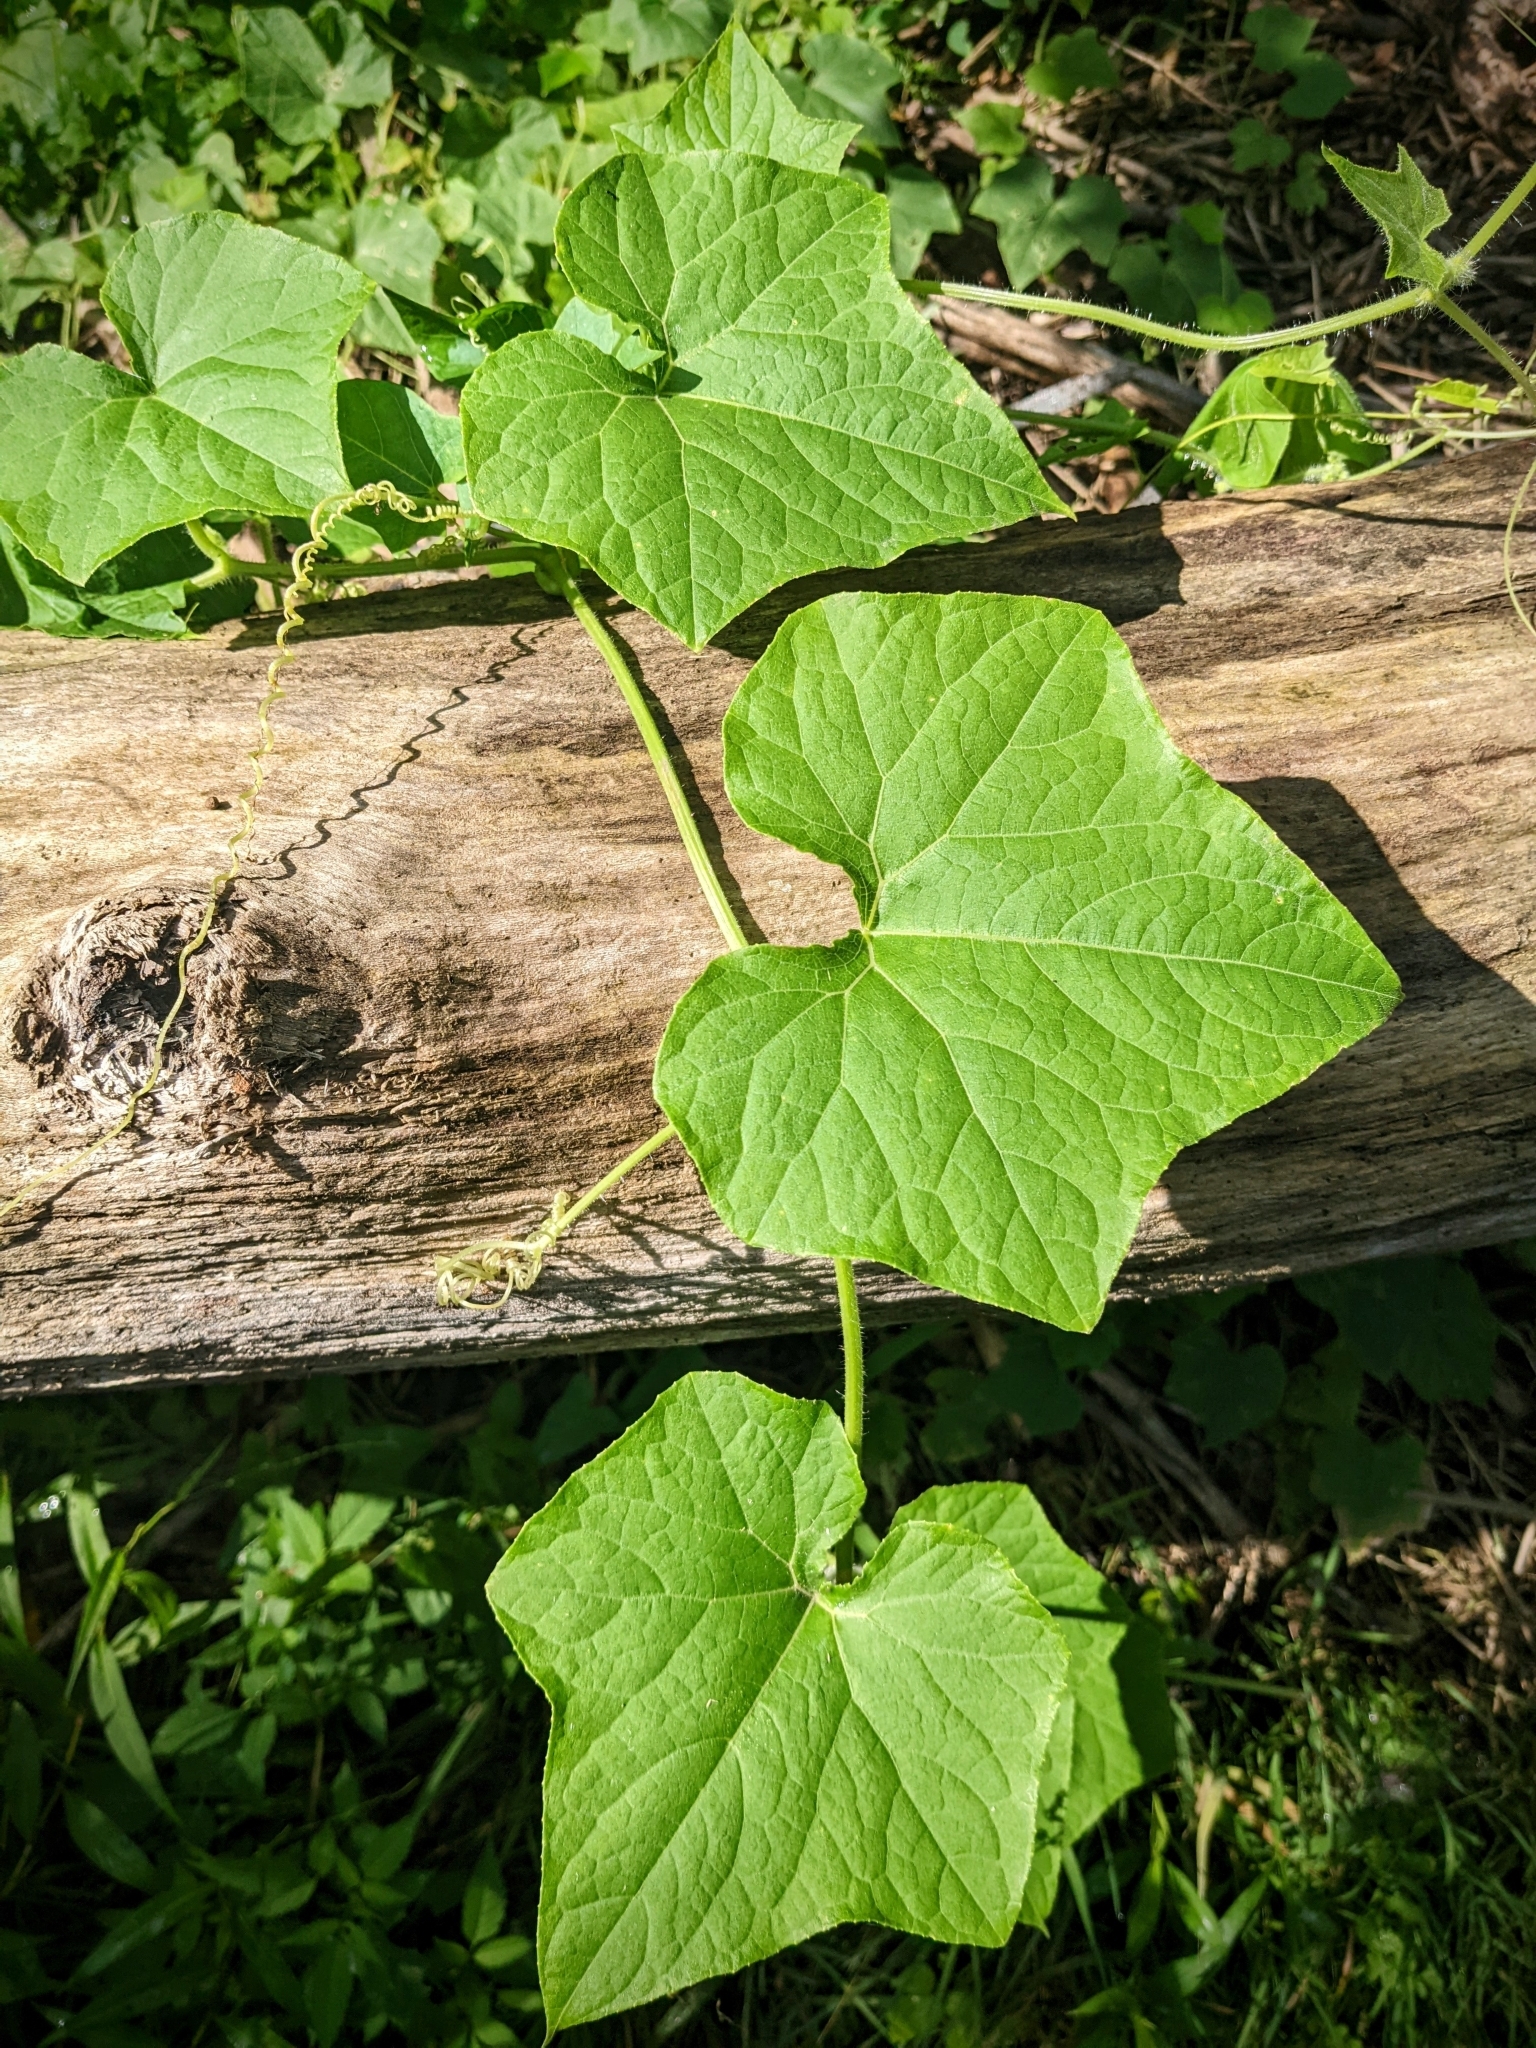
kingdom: Plantae
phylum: Tracheophyta
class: Magnoliopsida
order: Cucurbitales
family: Cucurbitaceae
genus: Sicyos
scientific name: Sicyos angulatus
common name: Angled burr cucumber
